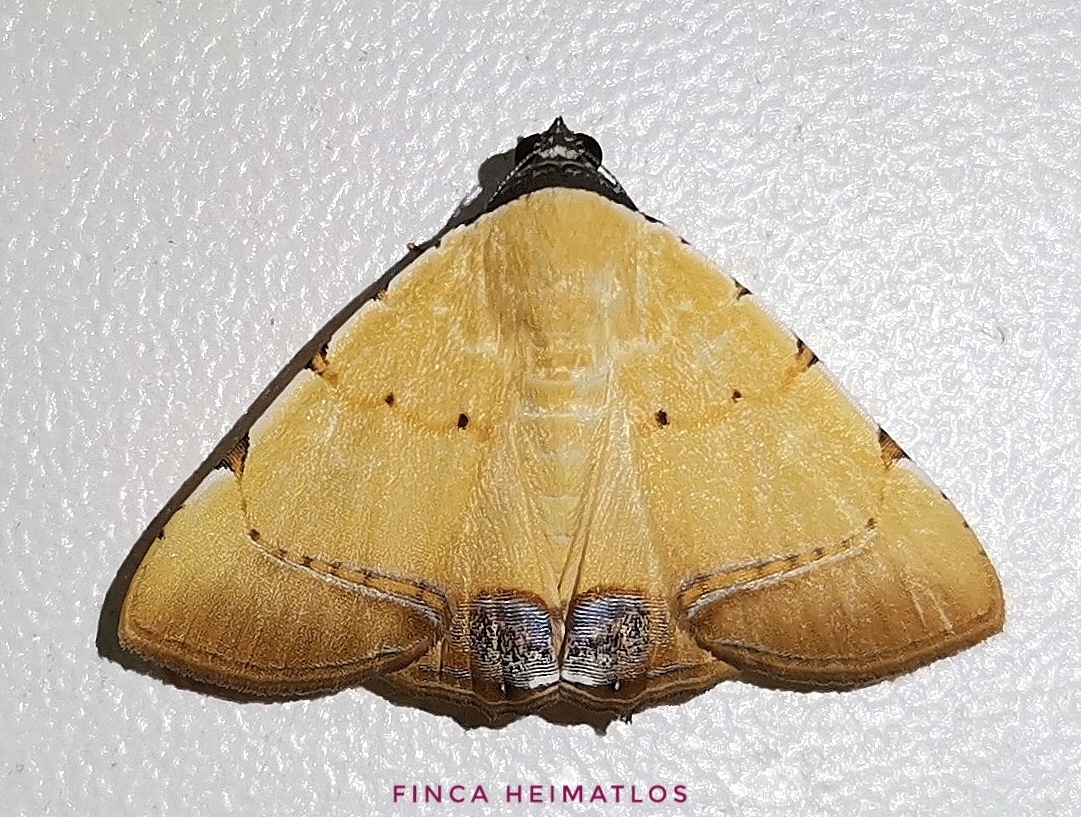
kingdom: Animalia
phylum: Arthropoda
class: Insecta
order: Lepidoptera
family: Erebidae
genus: Eulepidotis
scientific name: Eulepidotis micca
